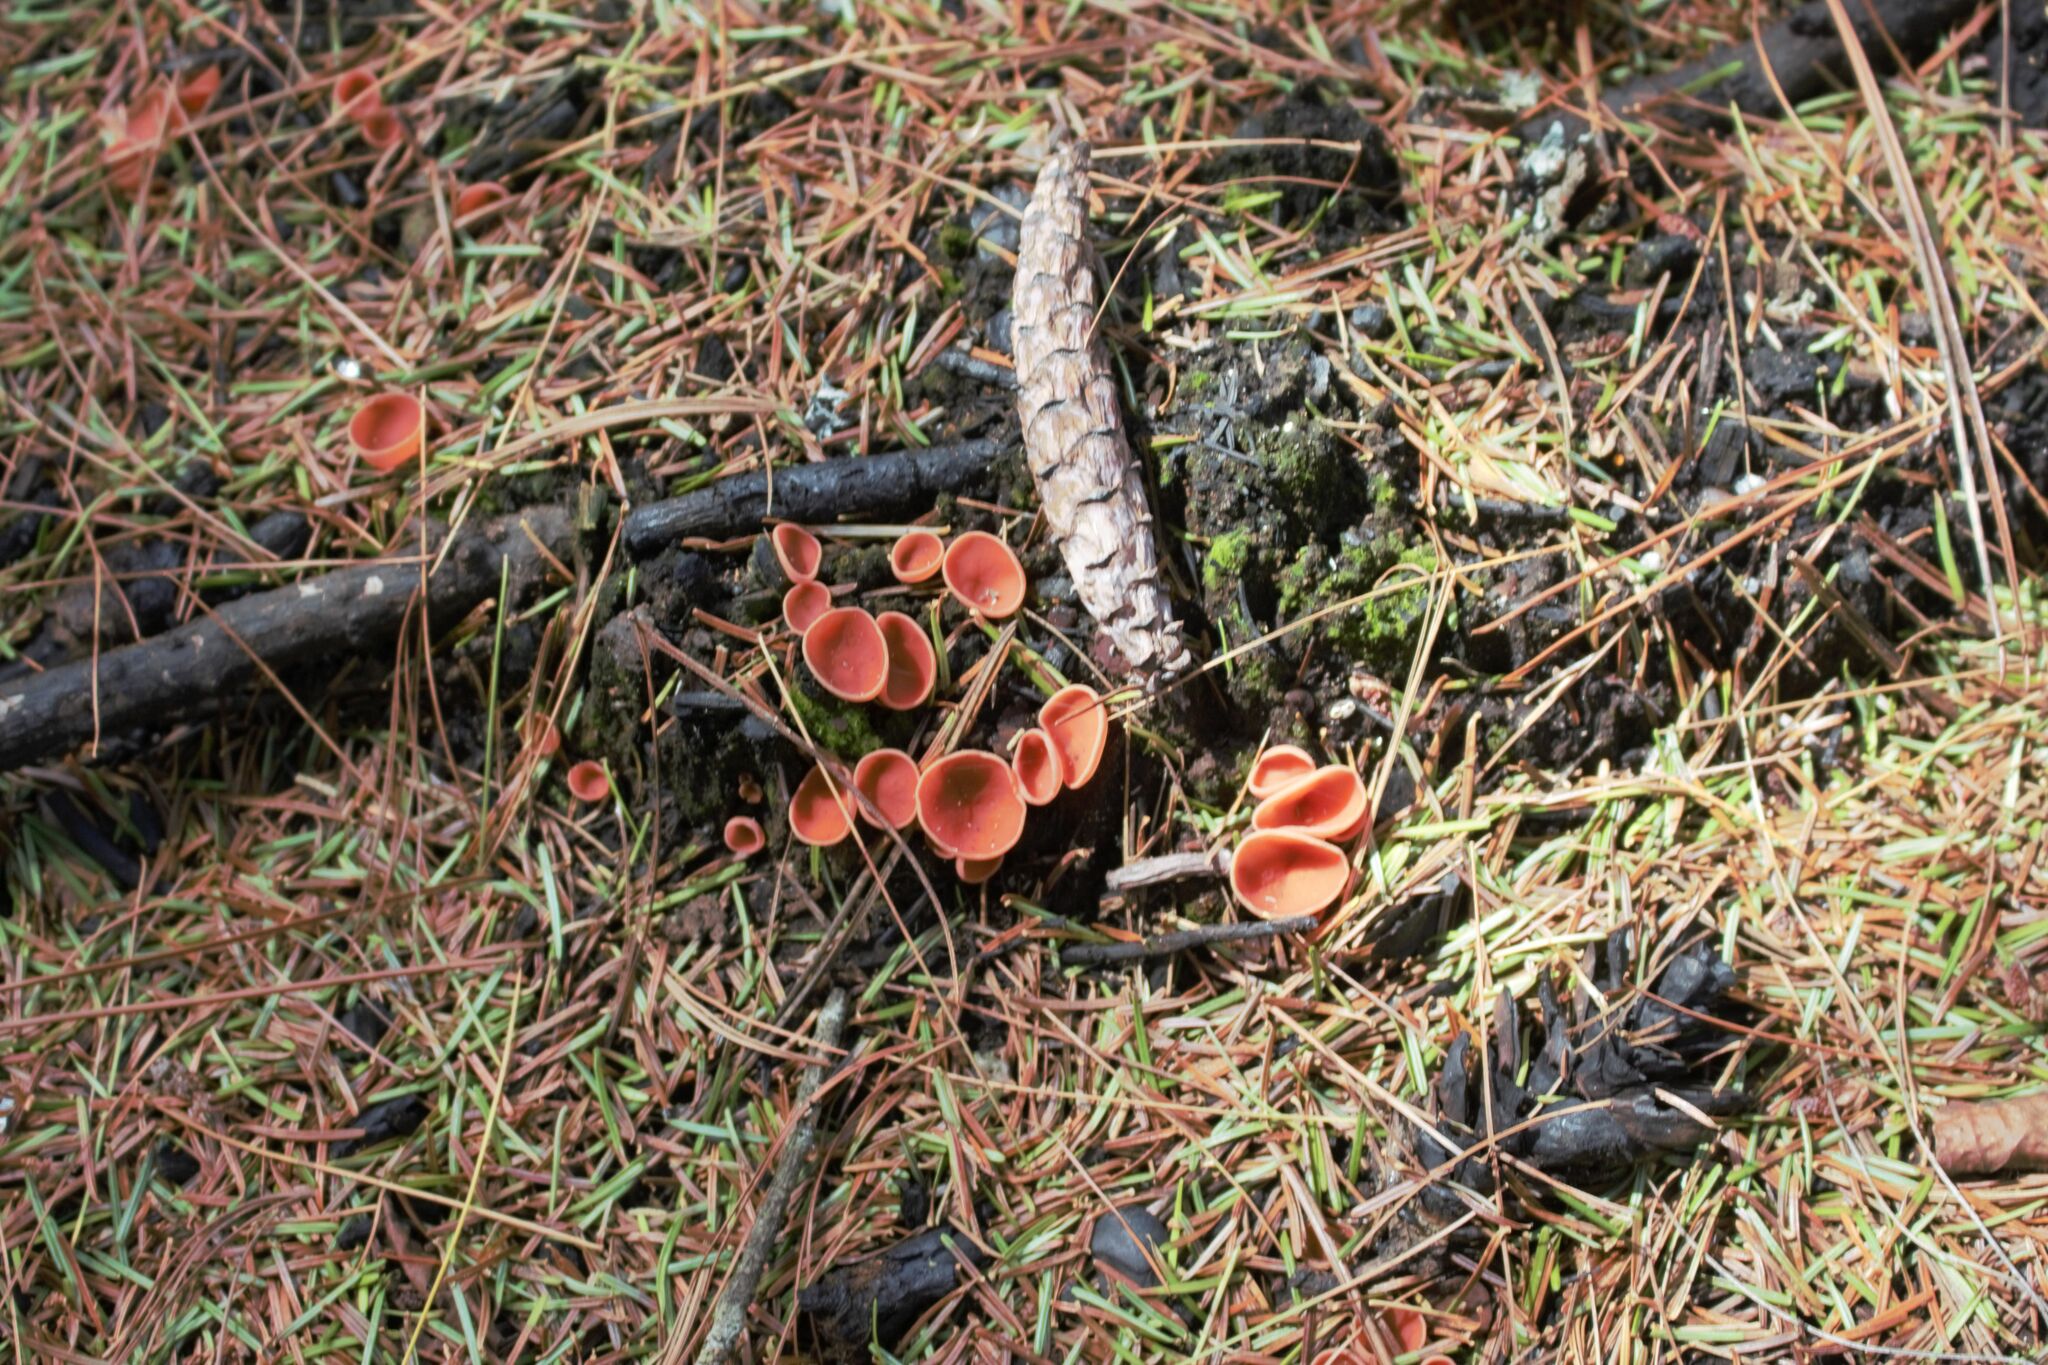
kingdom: Fungi
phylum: Ascomycota
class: Pezizomycetes
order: Pezizales
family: Pyronemataceae
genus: Pyropyxis
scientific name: Pyropyxis rubra
